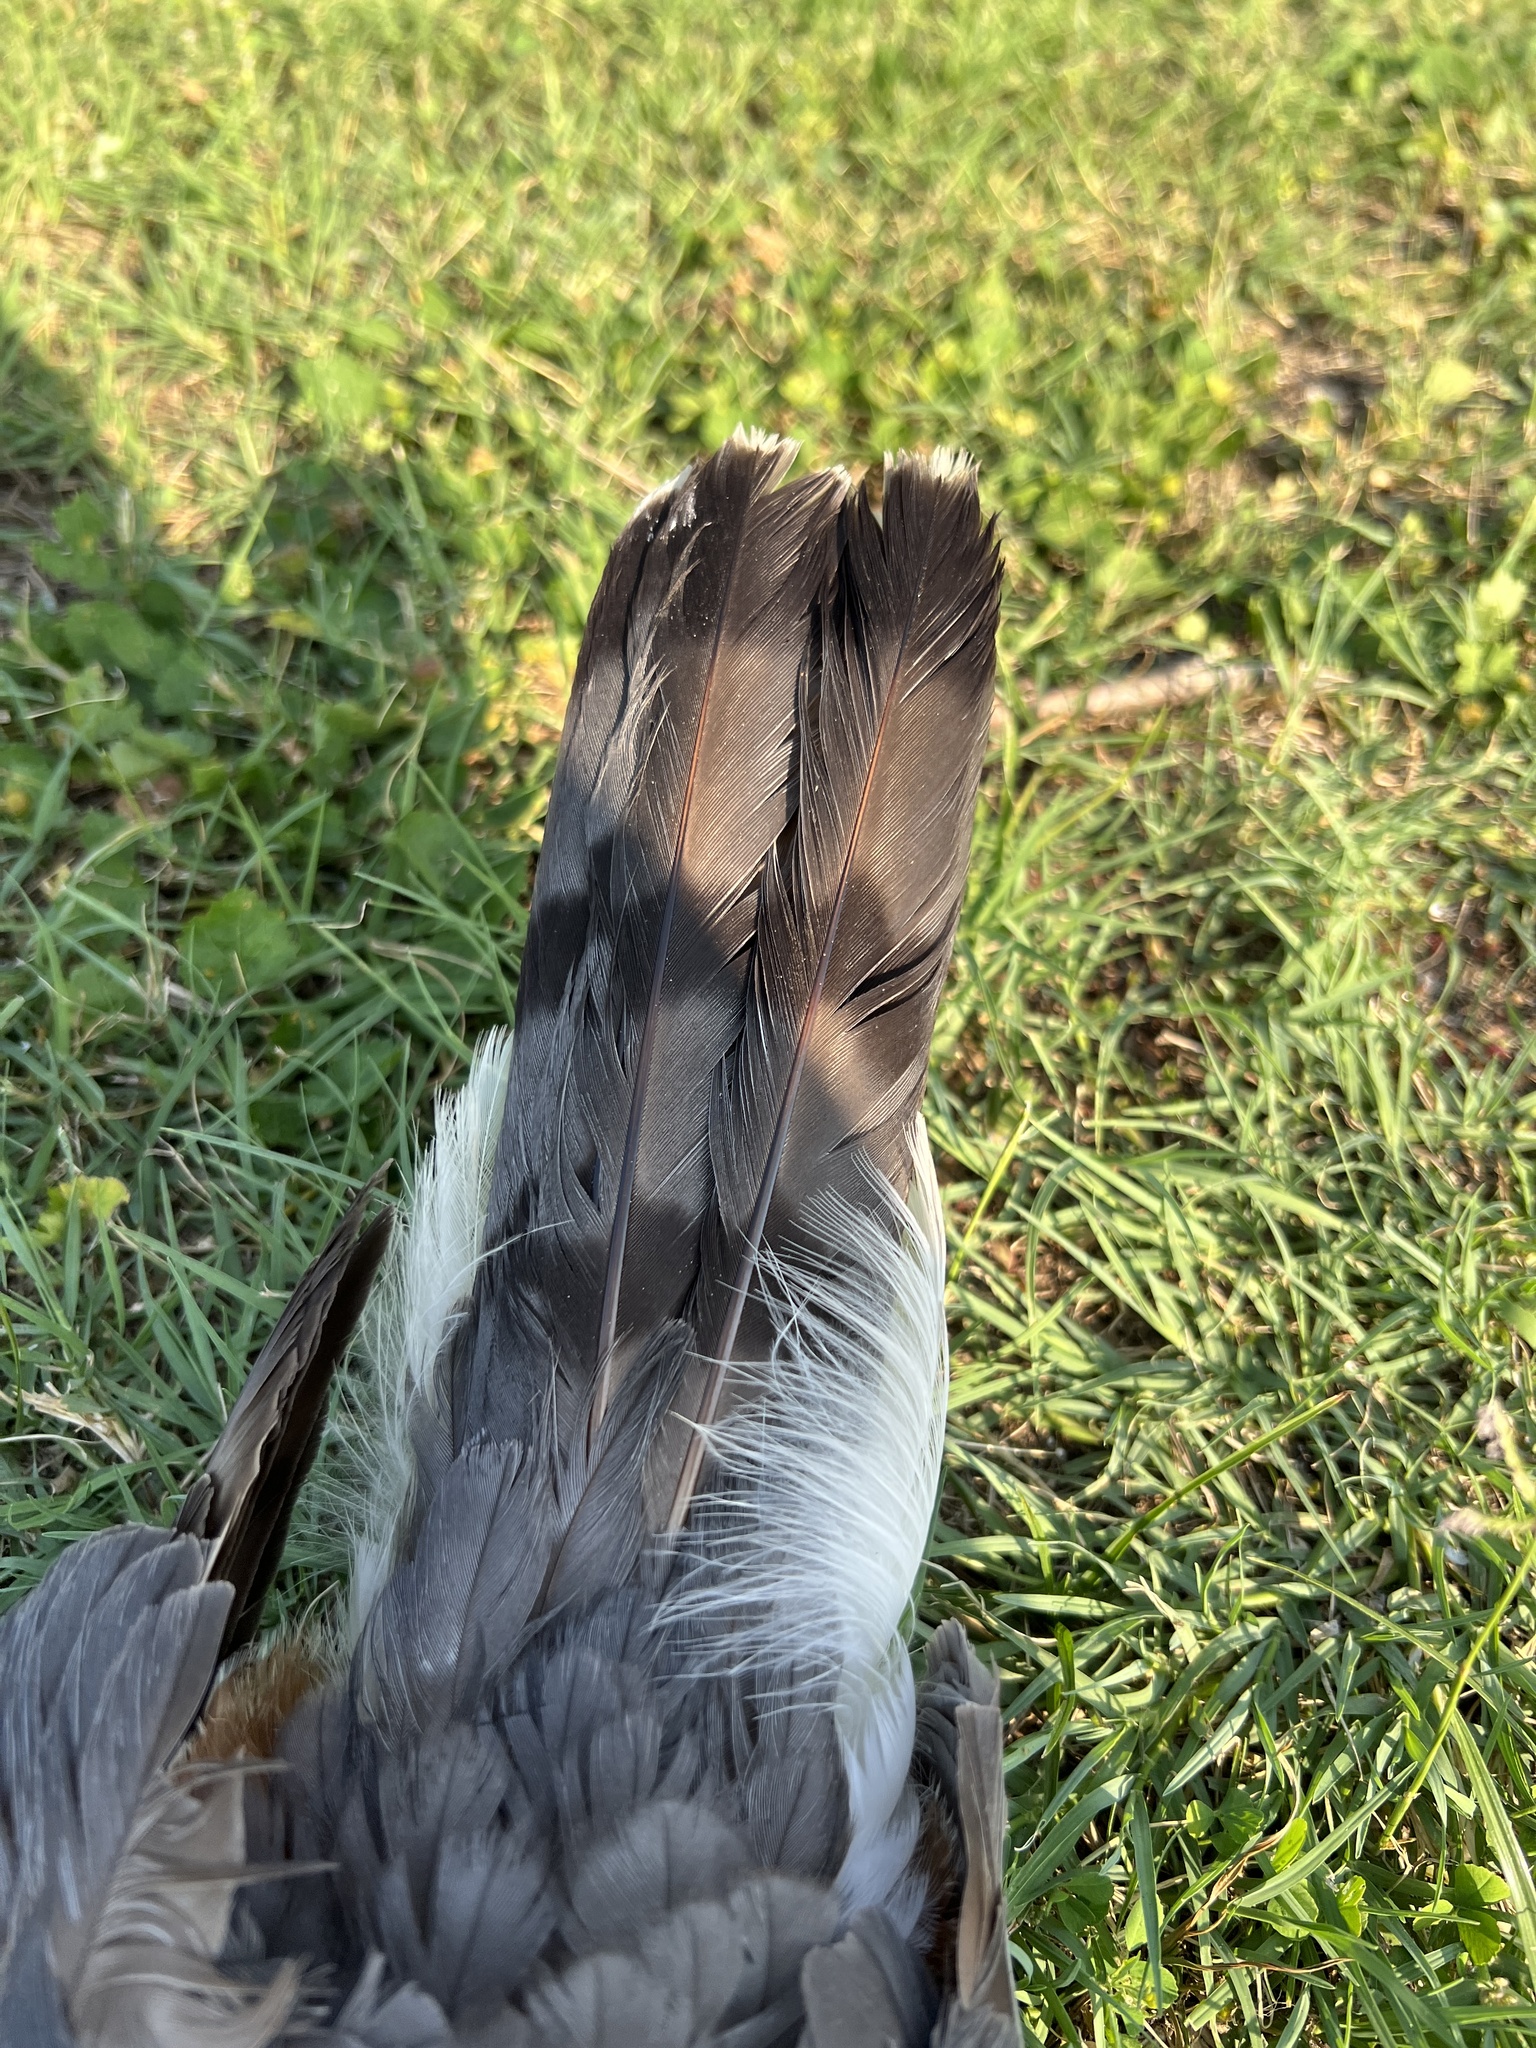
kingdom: Animalia
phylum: Chordata
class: Aves
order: Accipitriformes
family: Accipitridae
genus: Accipiter
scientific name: Accipiter cooperii
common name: Cooper's hawk
